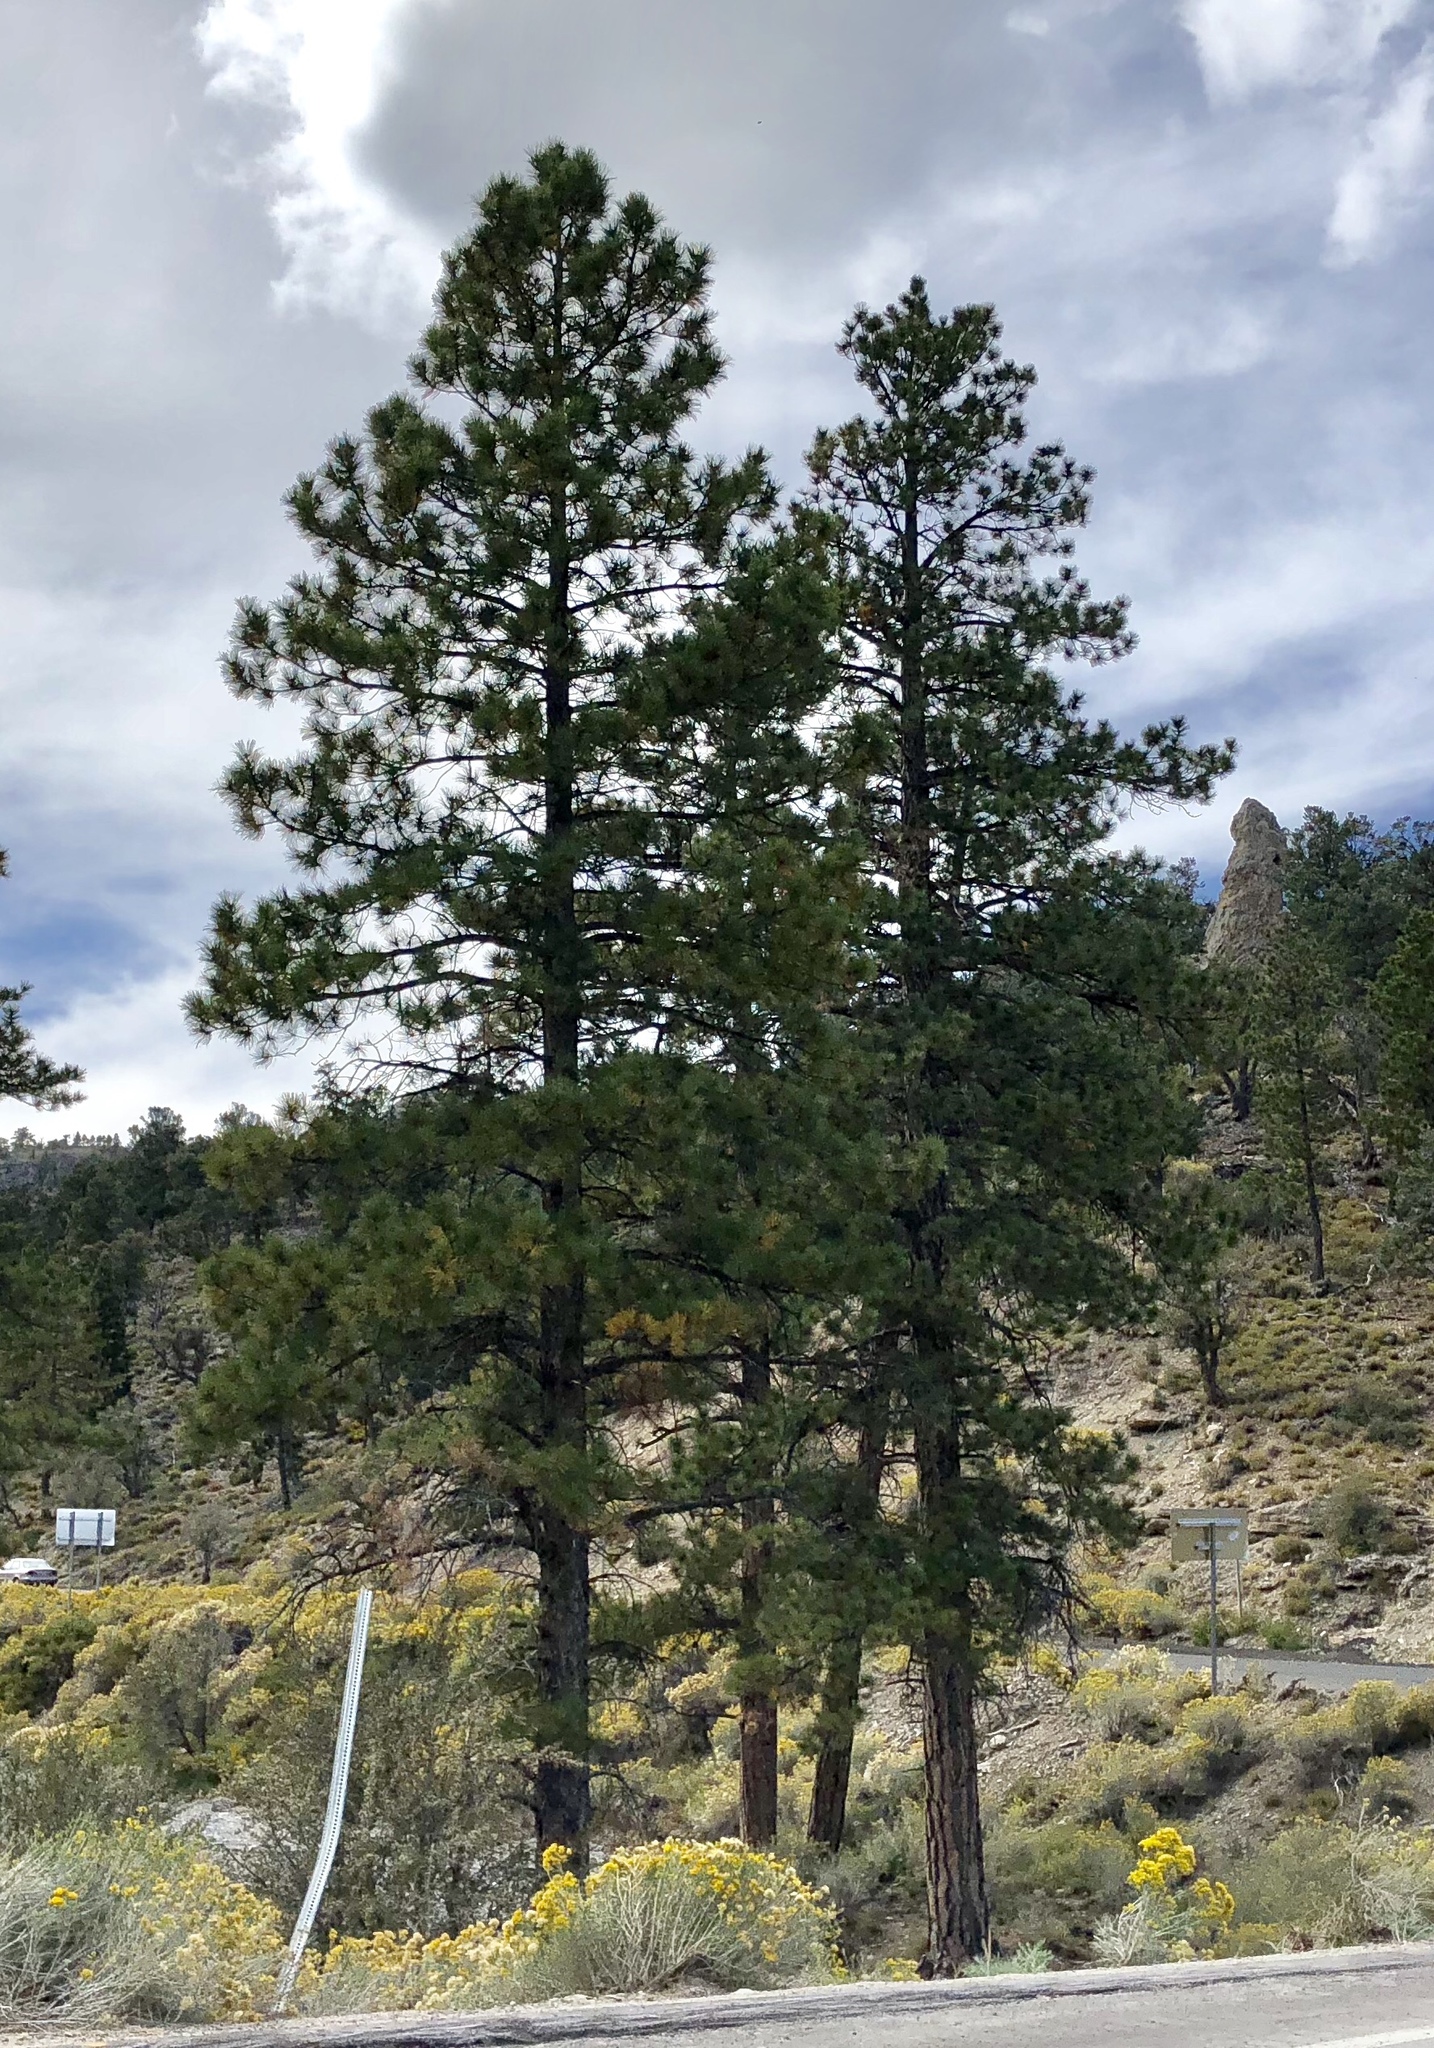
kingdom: Plantae
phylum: Tracheophyta
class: Pinopsida
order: Pinales
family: Pinaceae
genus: Pinus
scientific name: Pinus ponderosa
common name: Western yellow-pine
